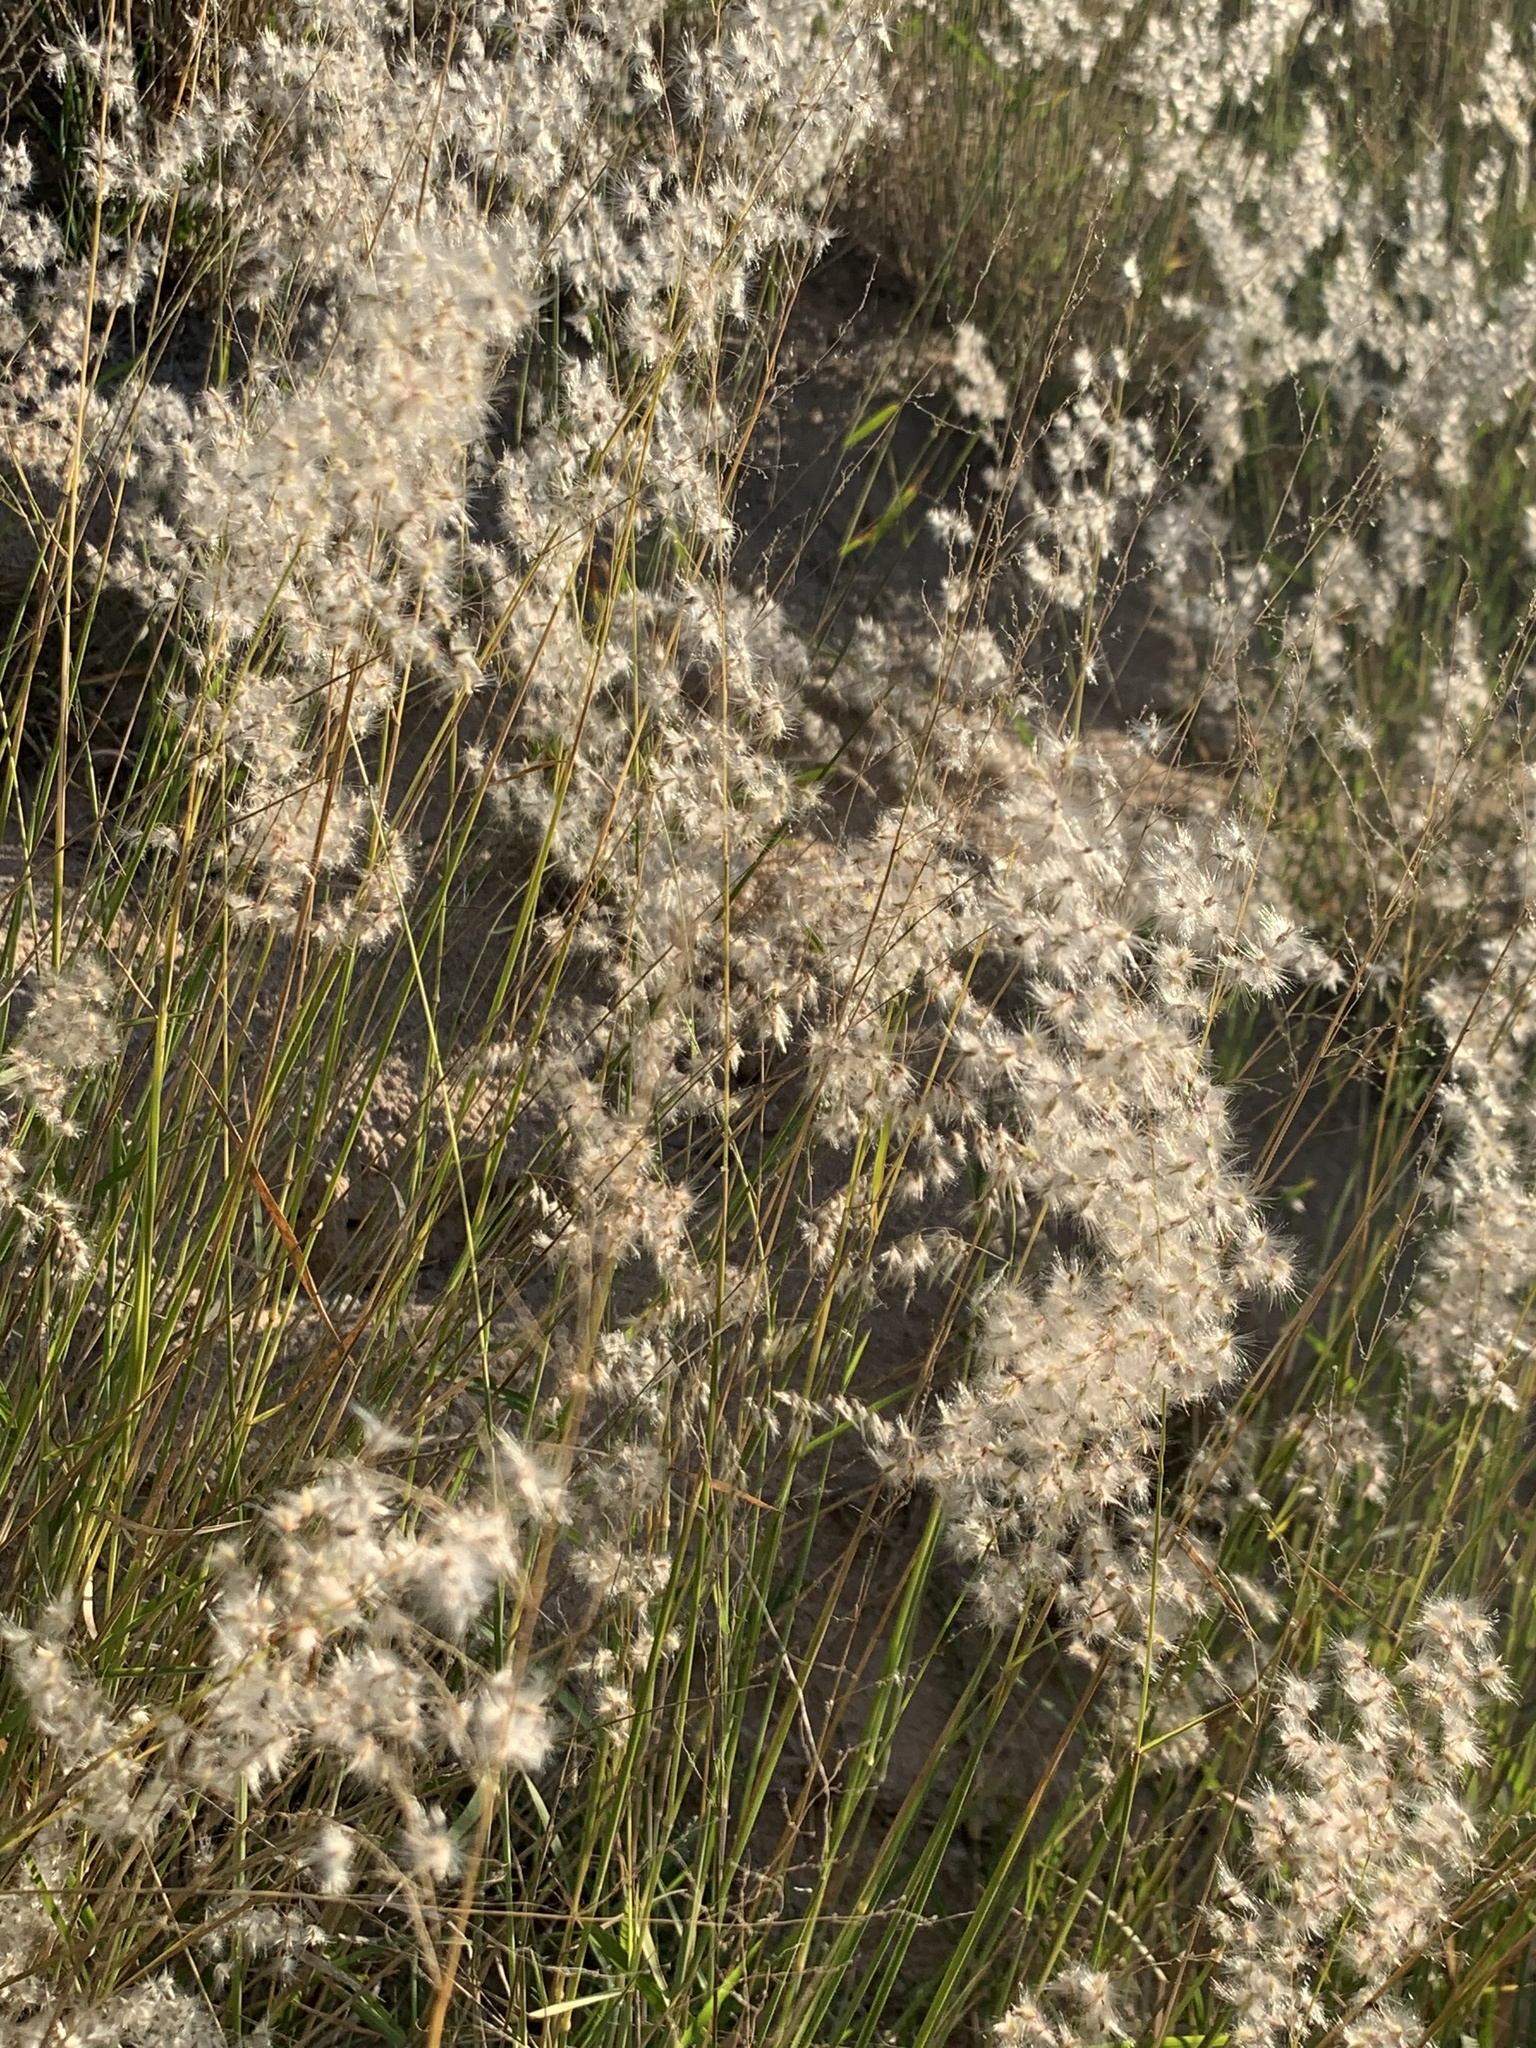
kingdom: Plantae
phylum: Tracheophyta
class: Liliopsida
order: Poales
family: Poaceae
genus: Melinis
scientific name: Melinis repens
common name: Rose natal grass
